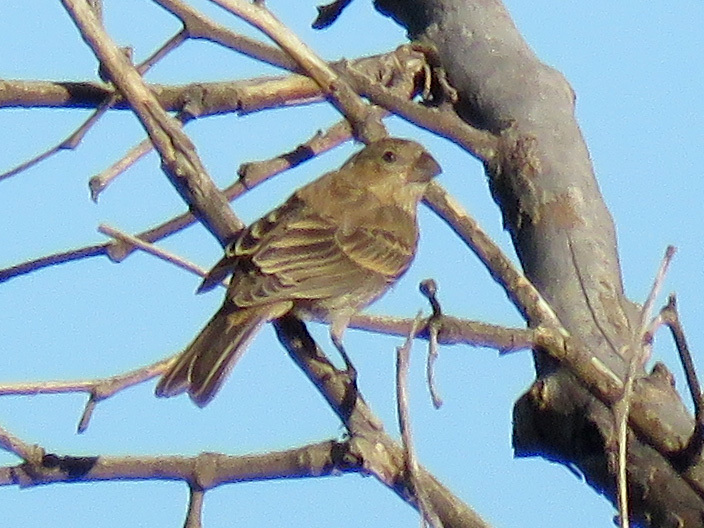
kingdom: Animalia
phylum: Chordata
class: Aves
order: Passeriformes
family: Fringillidae
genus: Haemorhous
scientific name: Haemorhous mexicanus
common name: House finch
